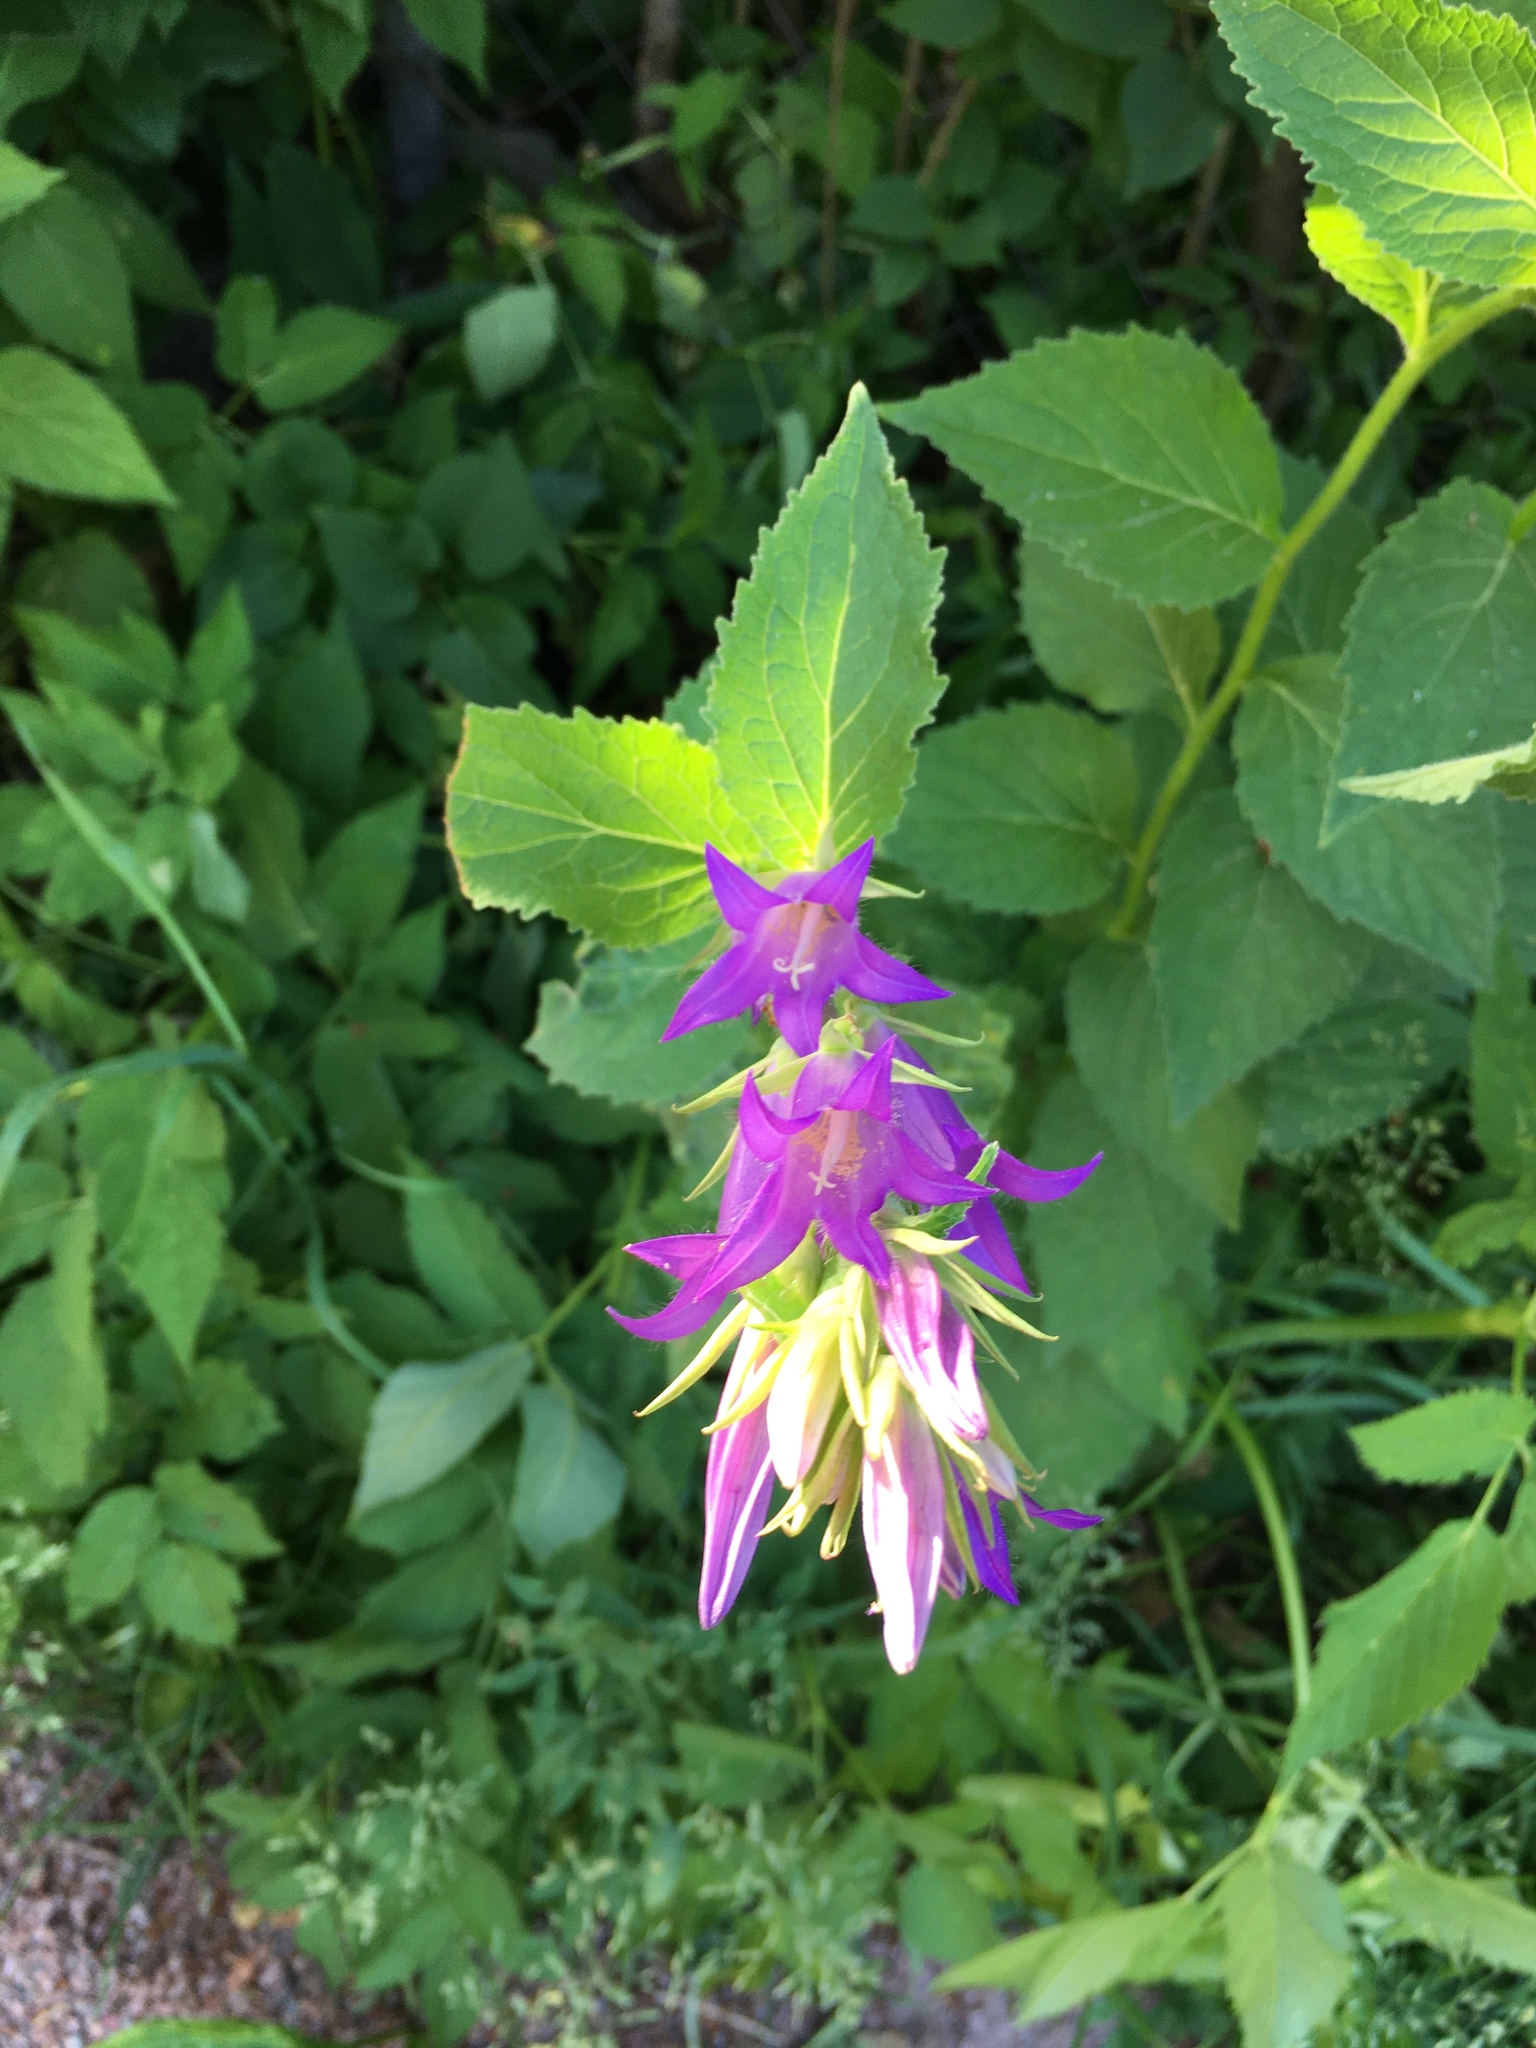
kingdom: Plantae
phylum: Tracheophyta
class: Magnoliopsida
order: Asterales
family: Campanulaceae
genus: Campanula
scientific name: Campanula latifolia
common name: Giant bellflower
